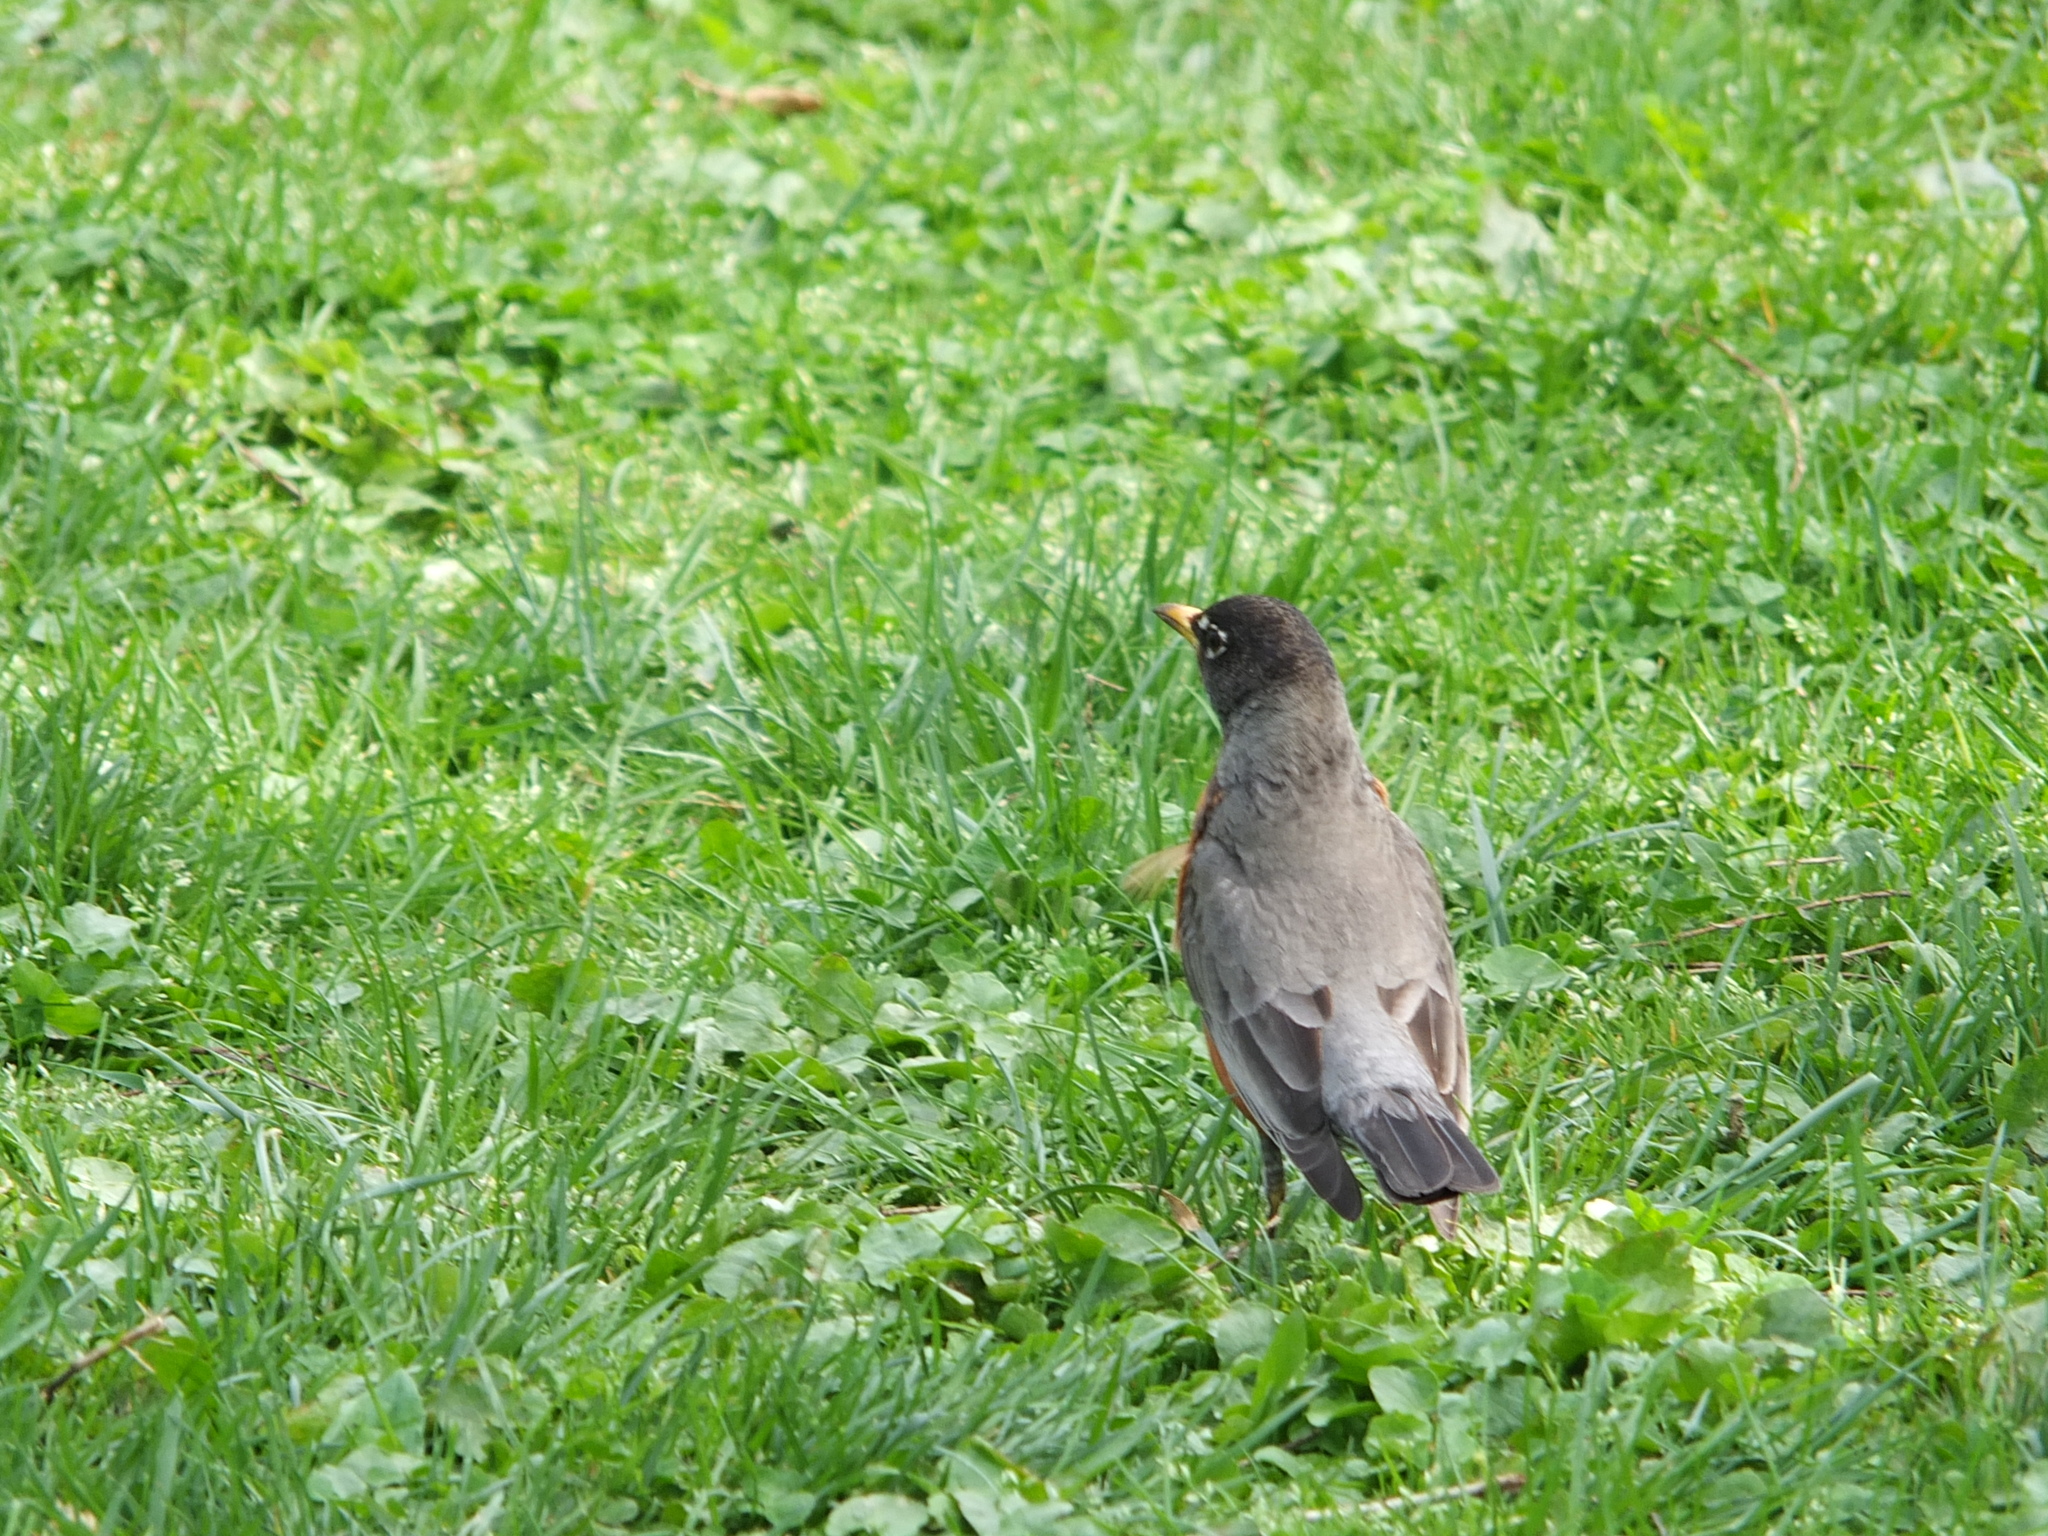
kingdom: Animalia
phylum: Chordata
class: Aves
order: Passeriformes
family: Turdidae
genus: Turdus
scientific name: Turdus migratorius
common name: American robin
